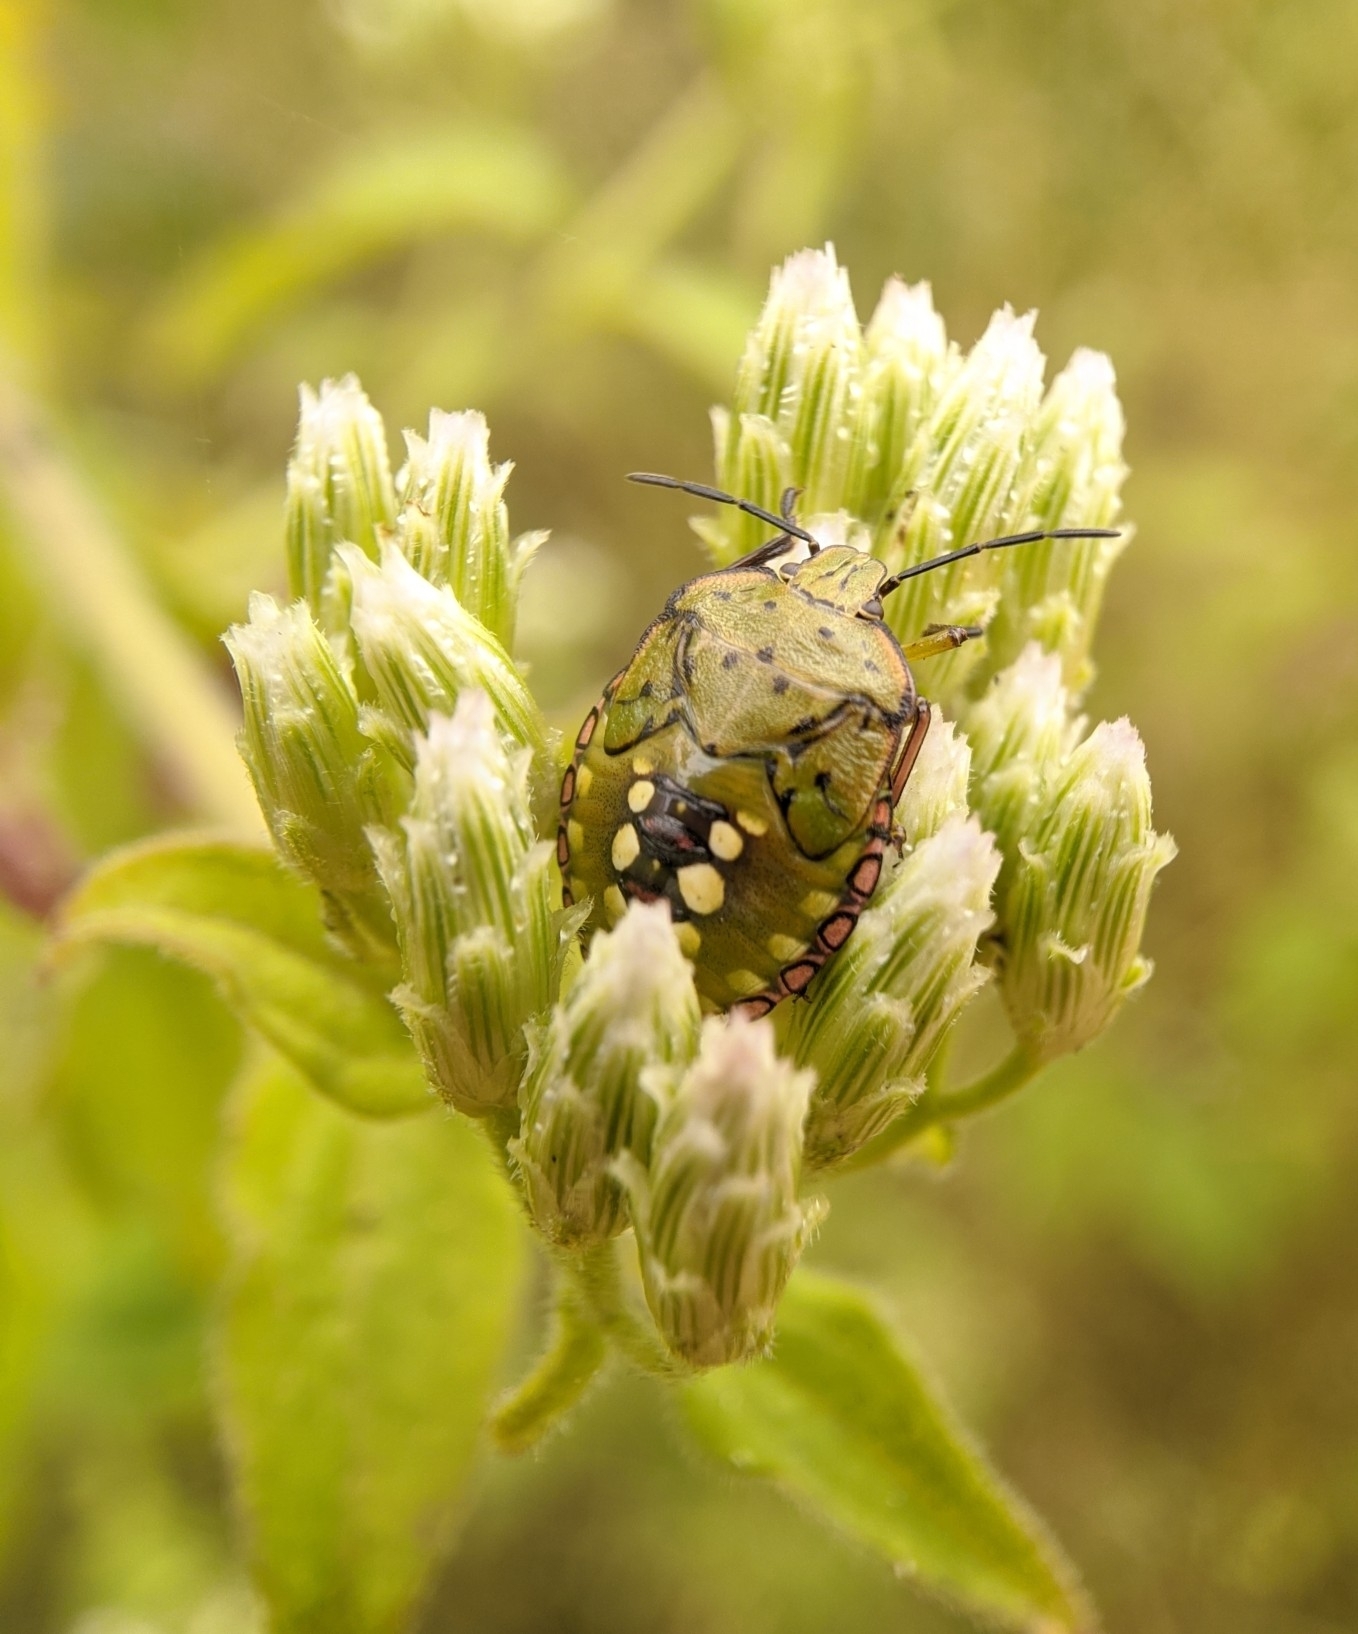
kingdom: Animalia
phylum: Arthropoda
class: Insecta
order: Hemiptera
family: Pentatomidae
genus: Nezara
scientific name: Nezara viridula
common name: Southern green stink bug
